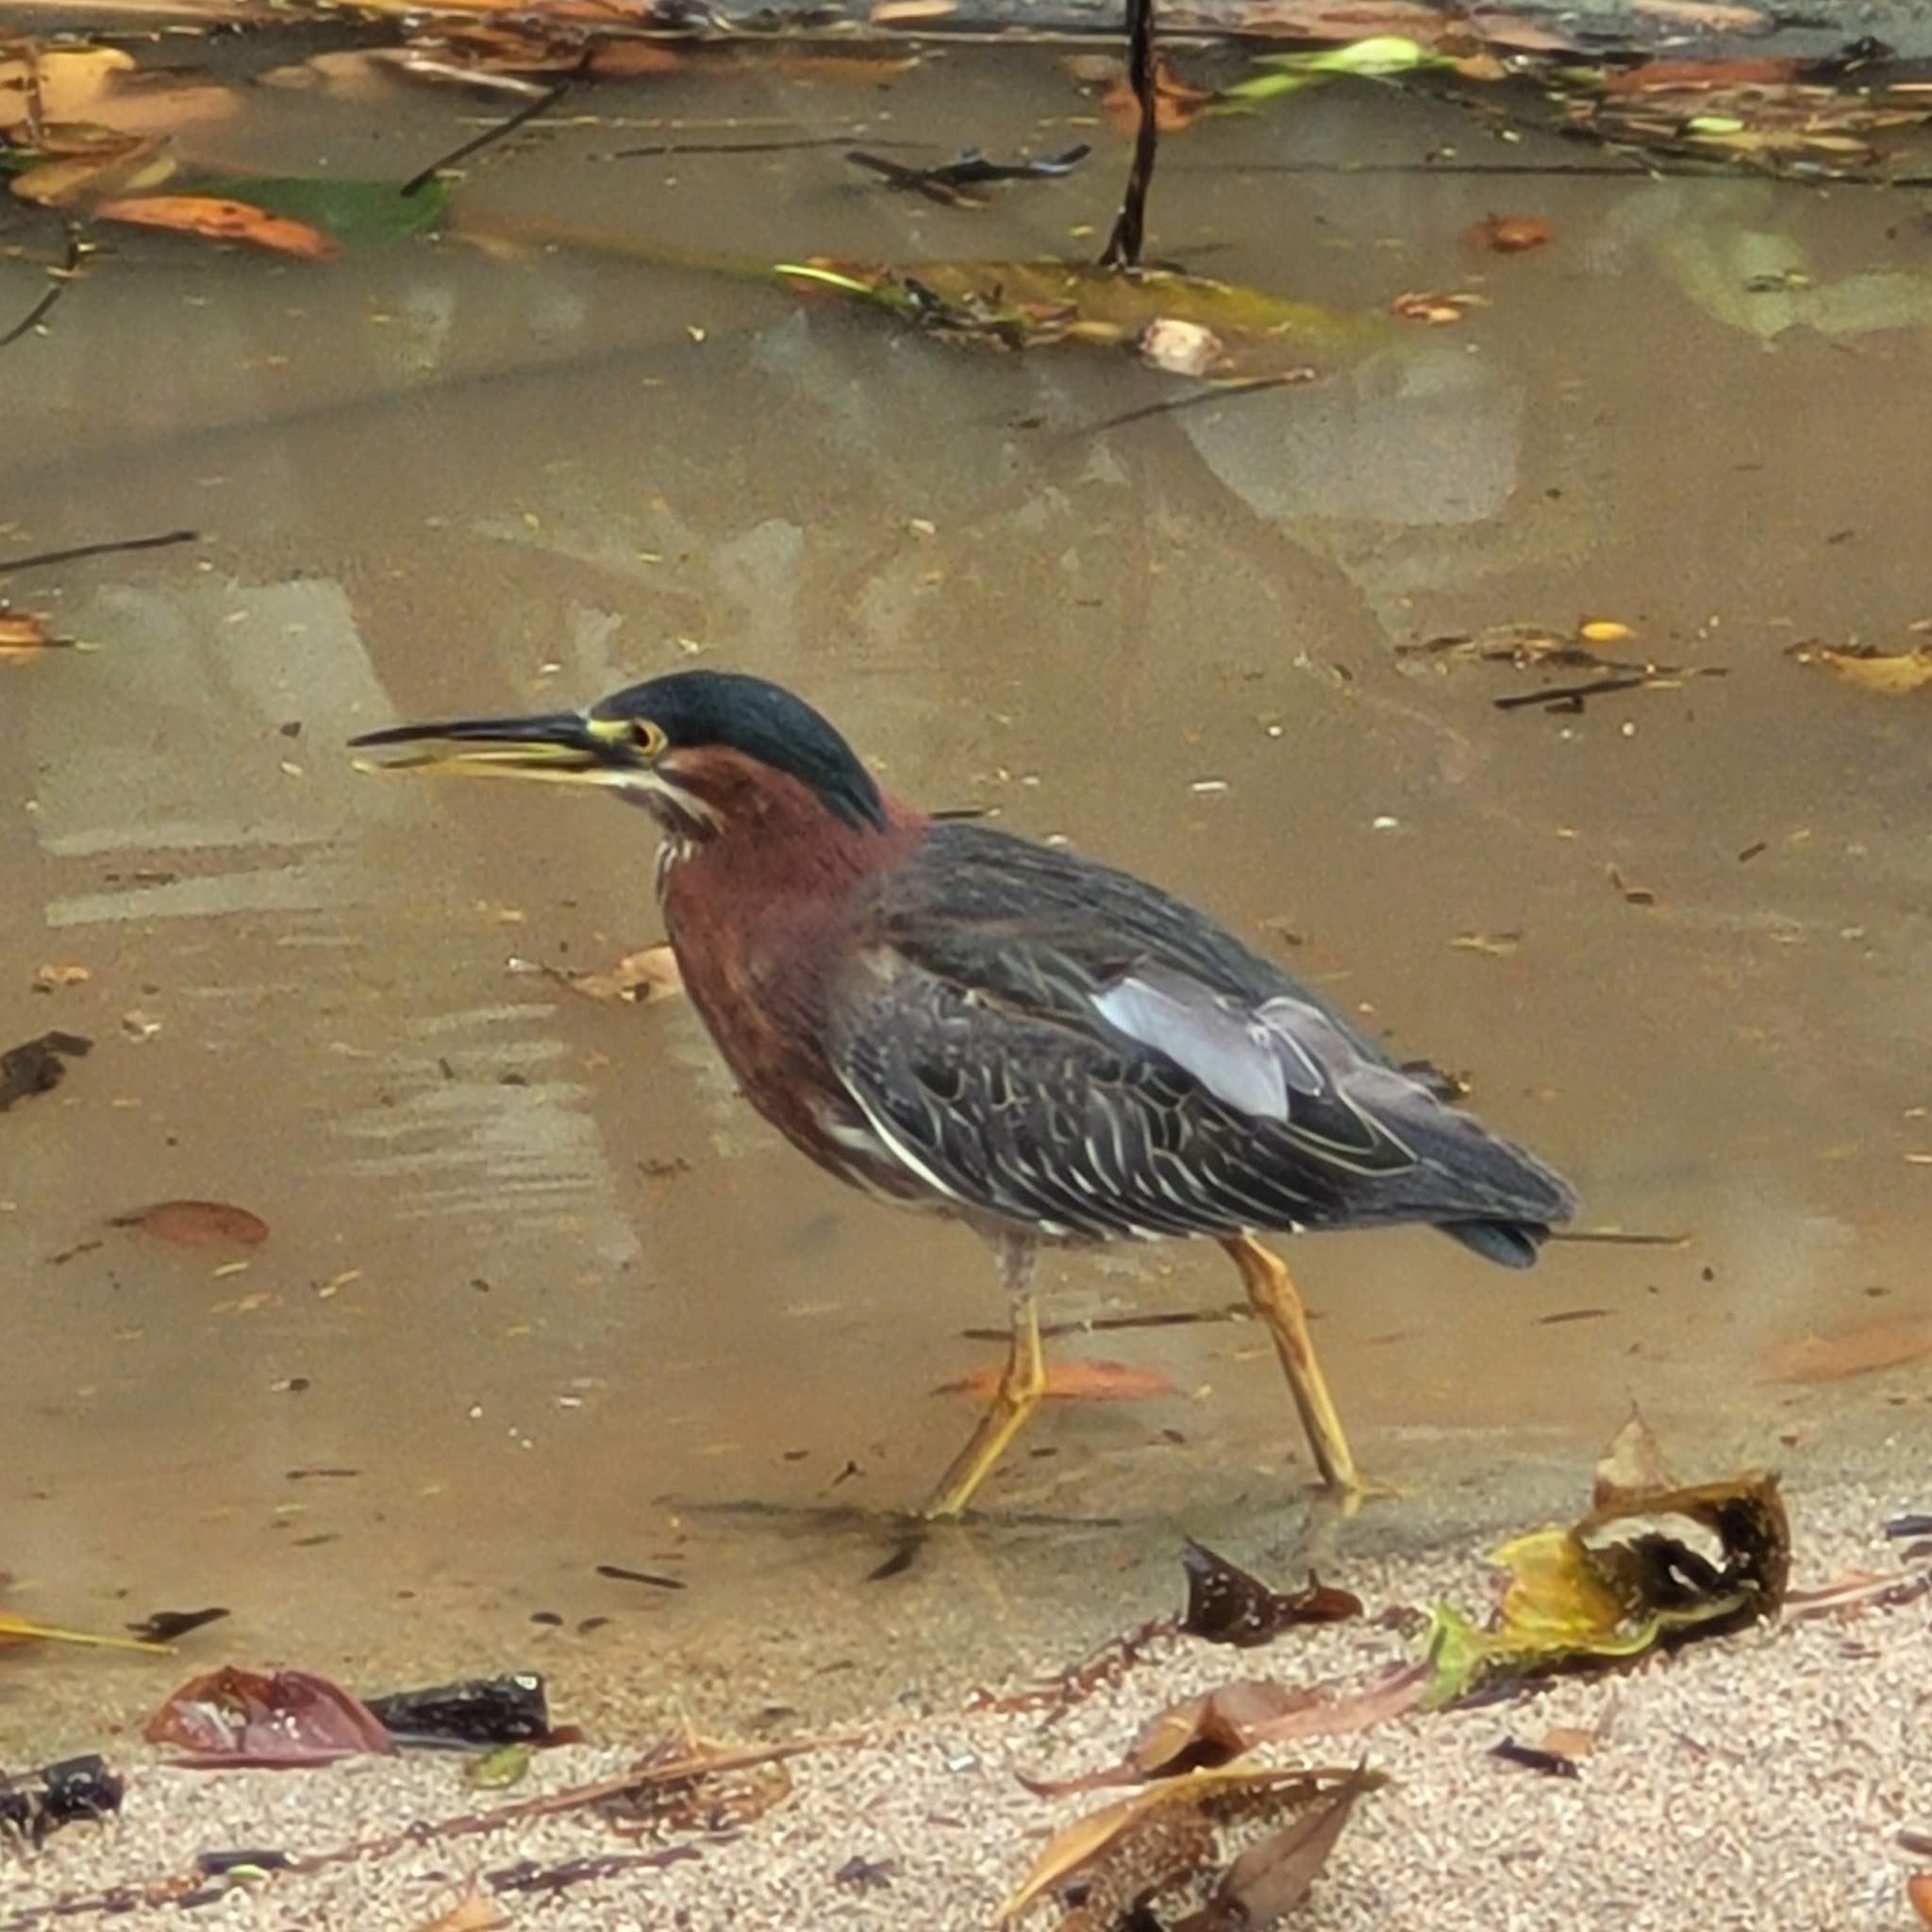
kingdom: Animalia
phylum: Chordata
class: Aves
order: Pelecaniformes
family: Ardeidae
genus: Butorides
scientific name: Butorides virescens
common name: Green heron
